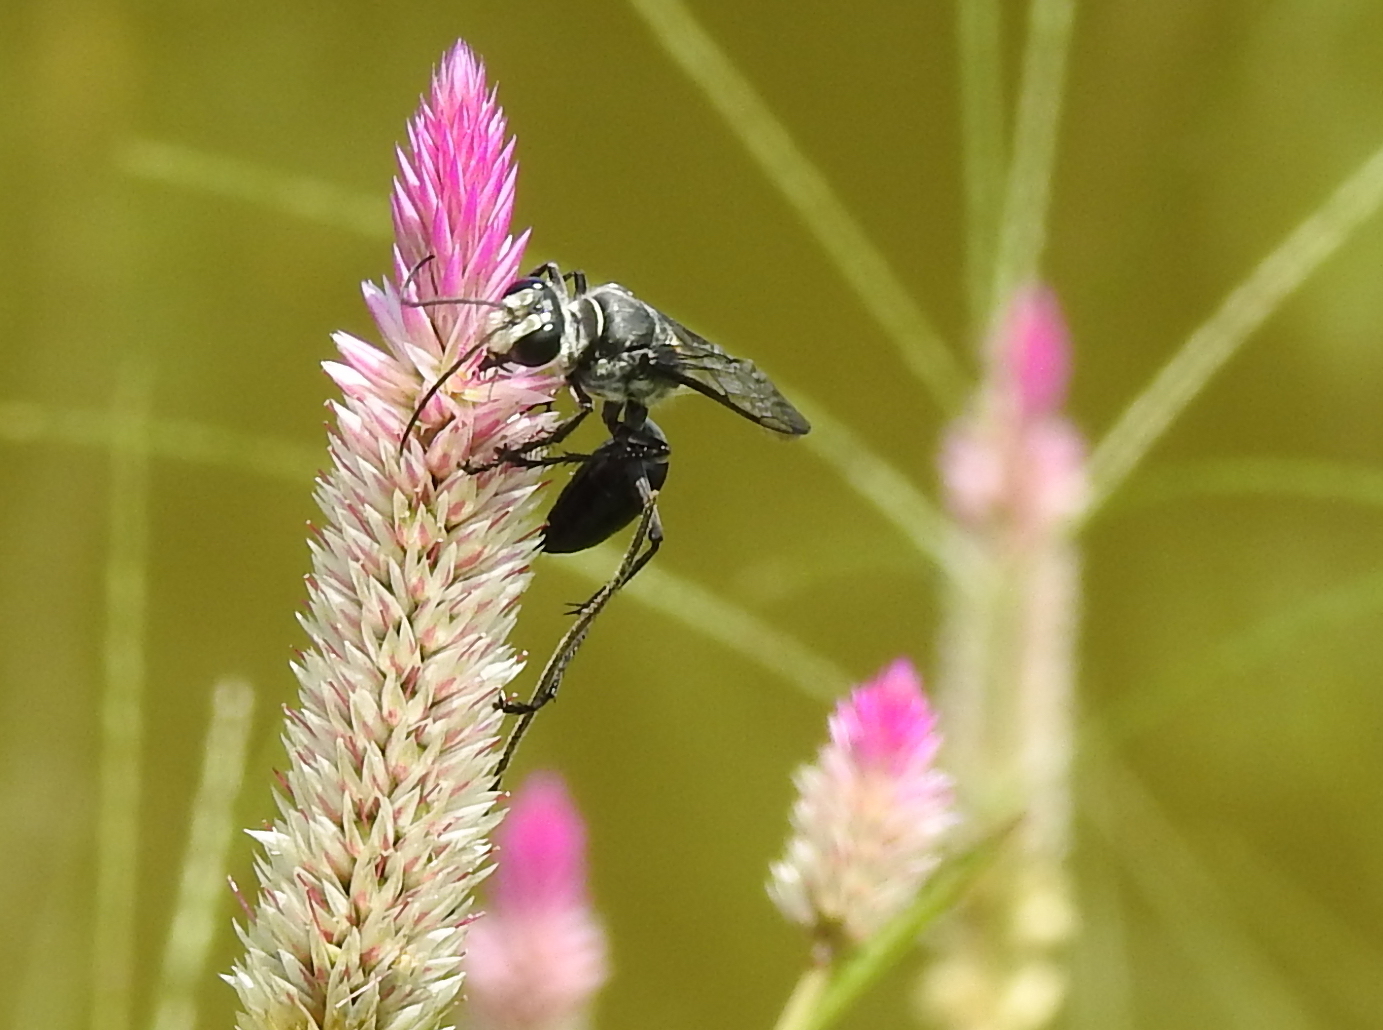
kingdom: Animalia
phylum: Arthropoda
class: Insecta
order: Hymenoptera
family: Sphecidae
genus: Sphex
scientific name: Sphex argentatus
